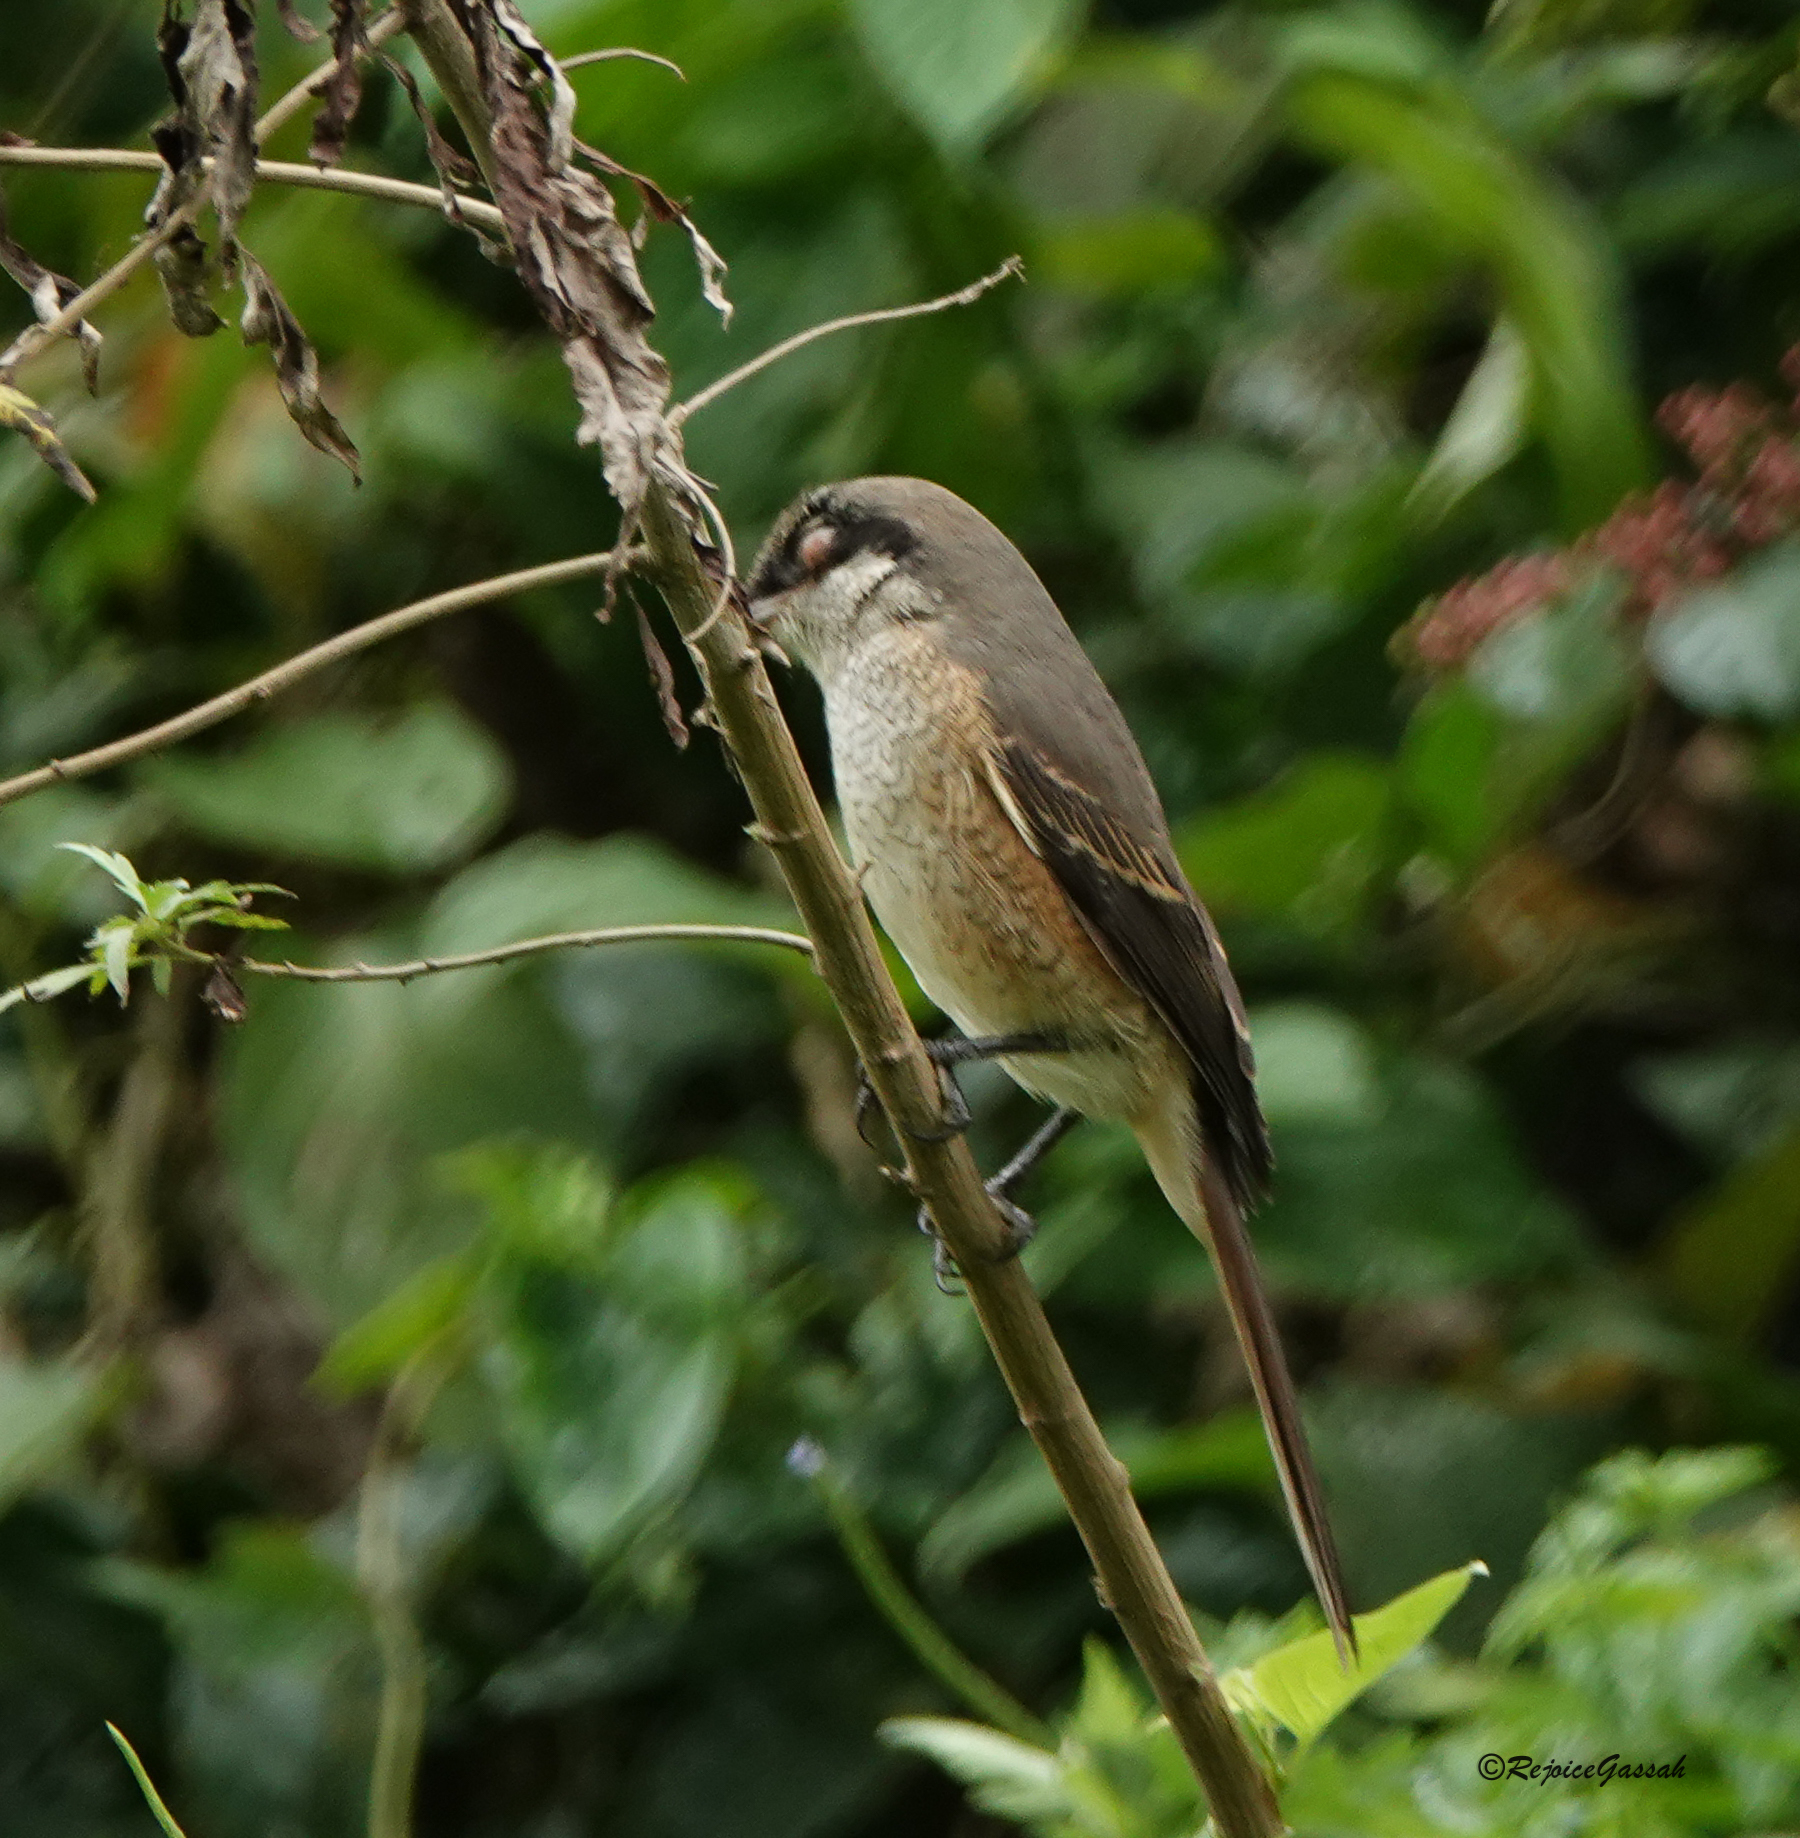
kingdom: Animalia
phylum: Chordata
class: Aves
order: Passeriformes
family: Laniidae
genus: Lanius
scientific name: Lanius cristatus
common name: Brown shrike
